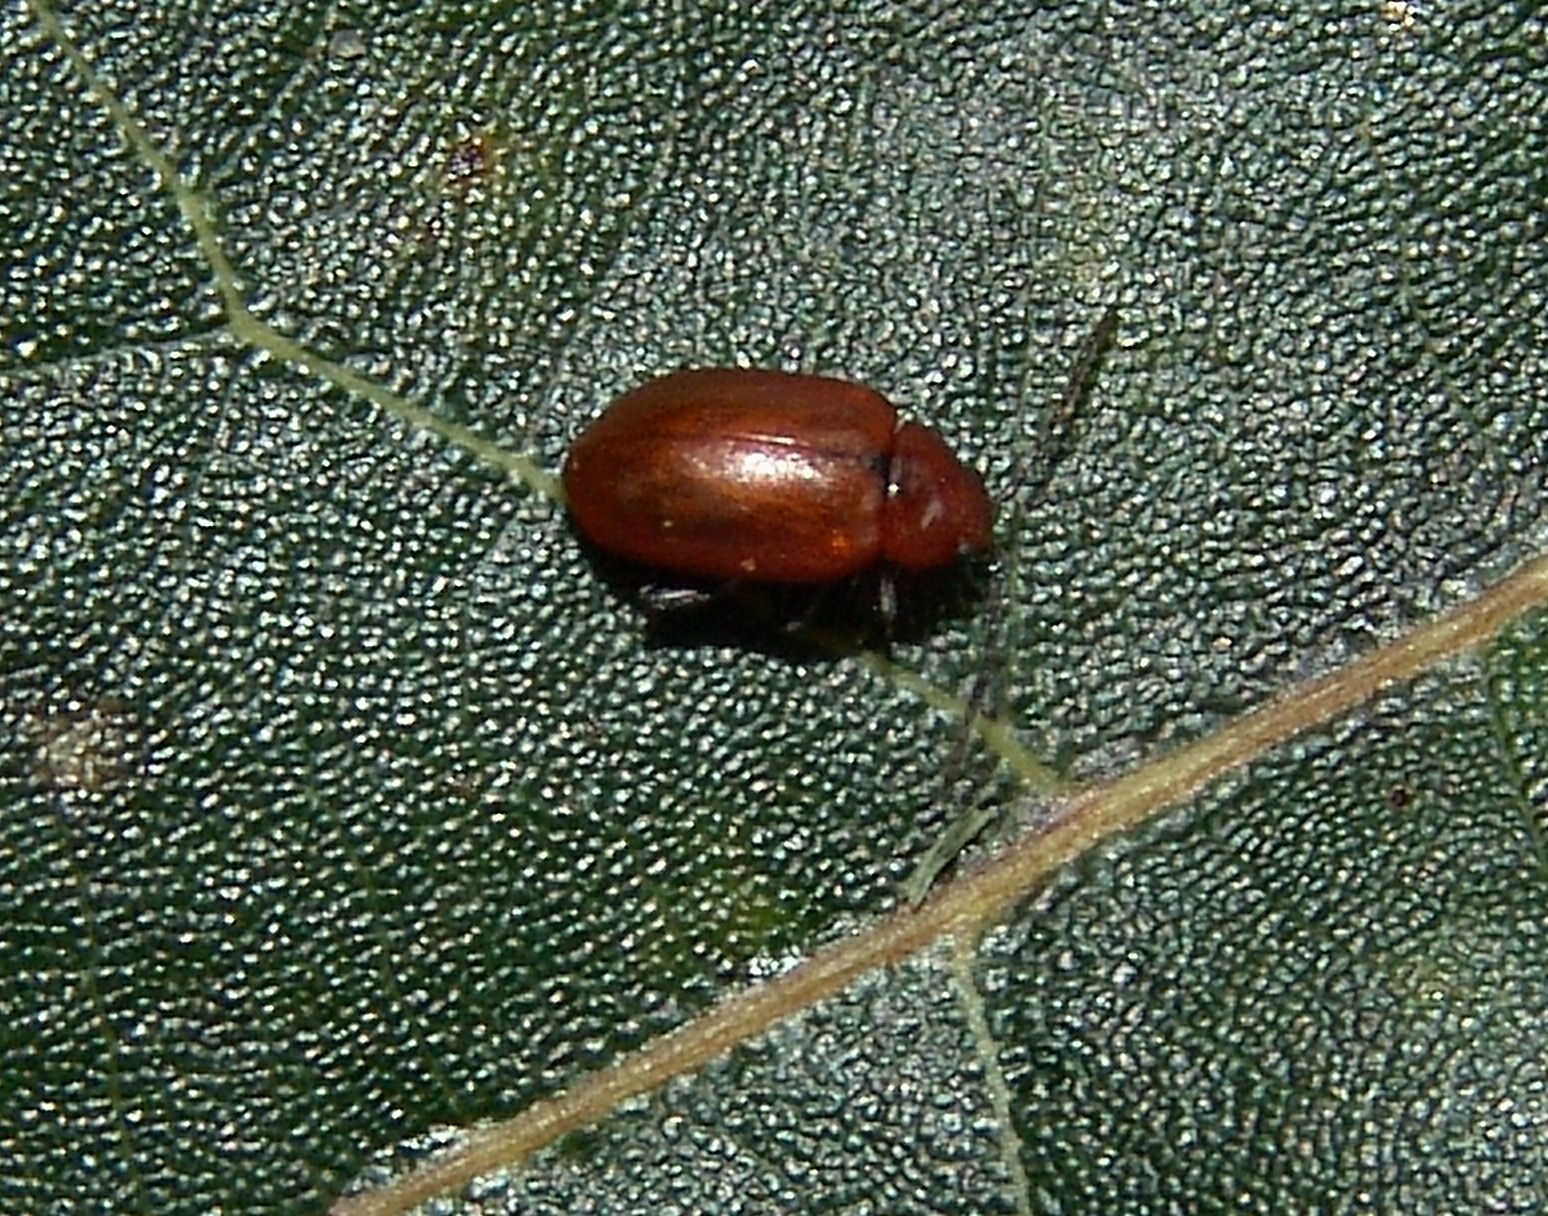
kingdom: Animalia
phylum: Arthropoda
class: Insecta
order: Coleoptera
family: Chrysomelidae
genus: Strabala
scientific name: Strabala rufa
